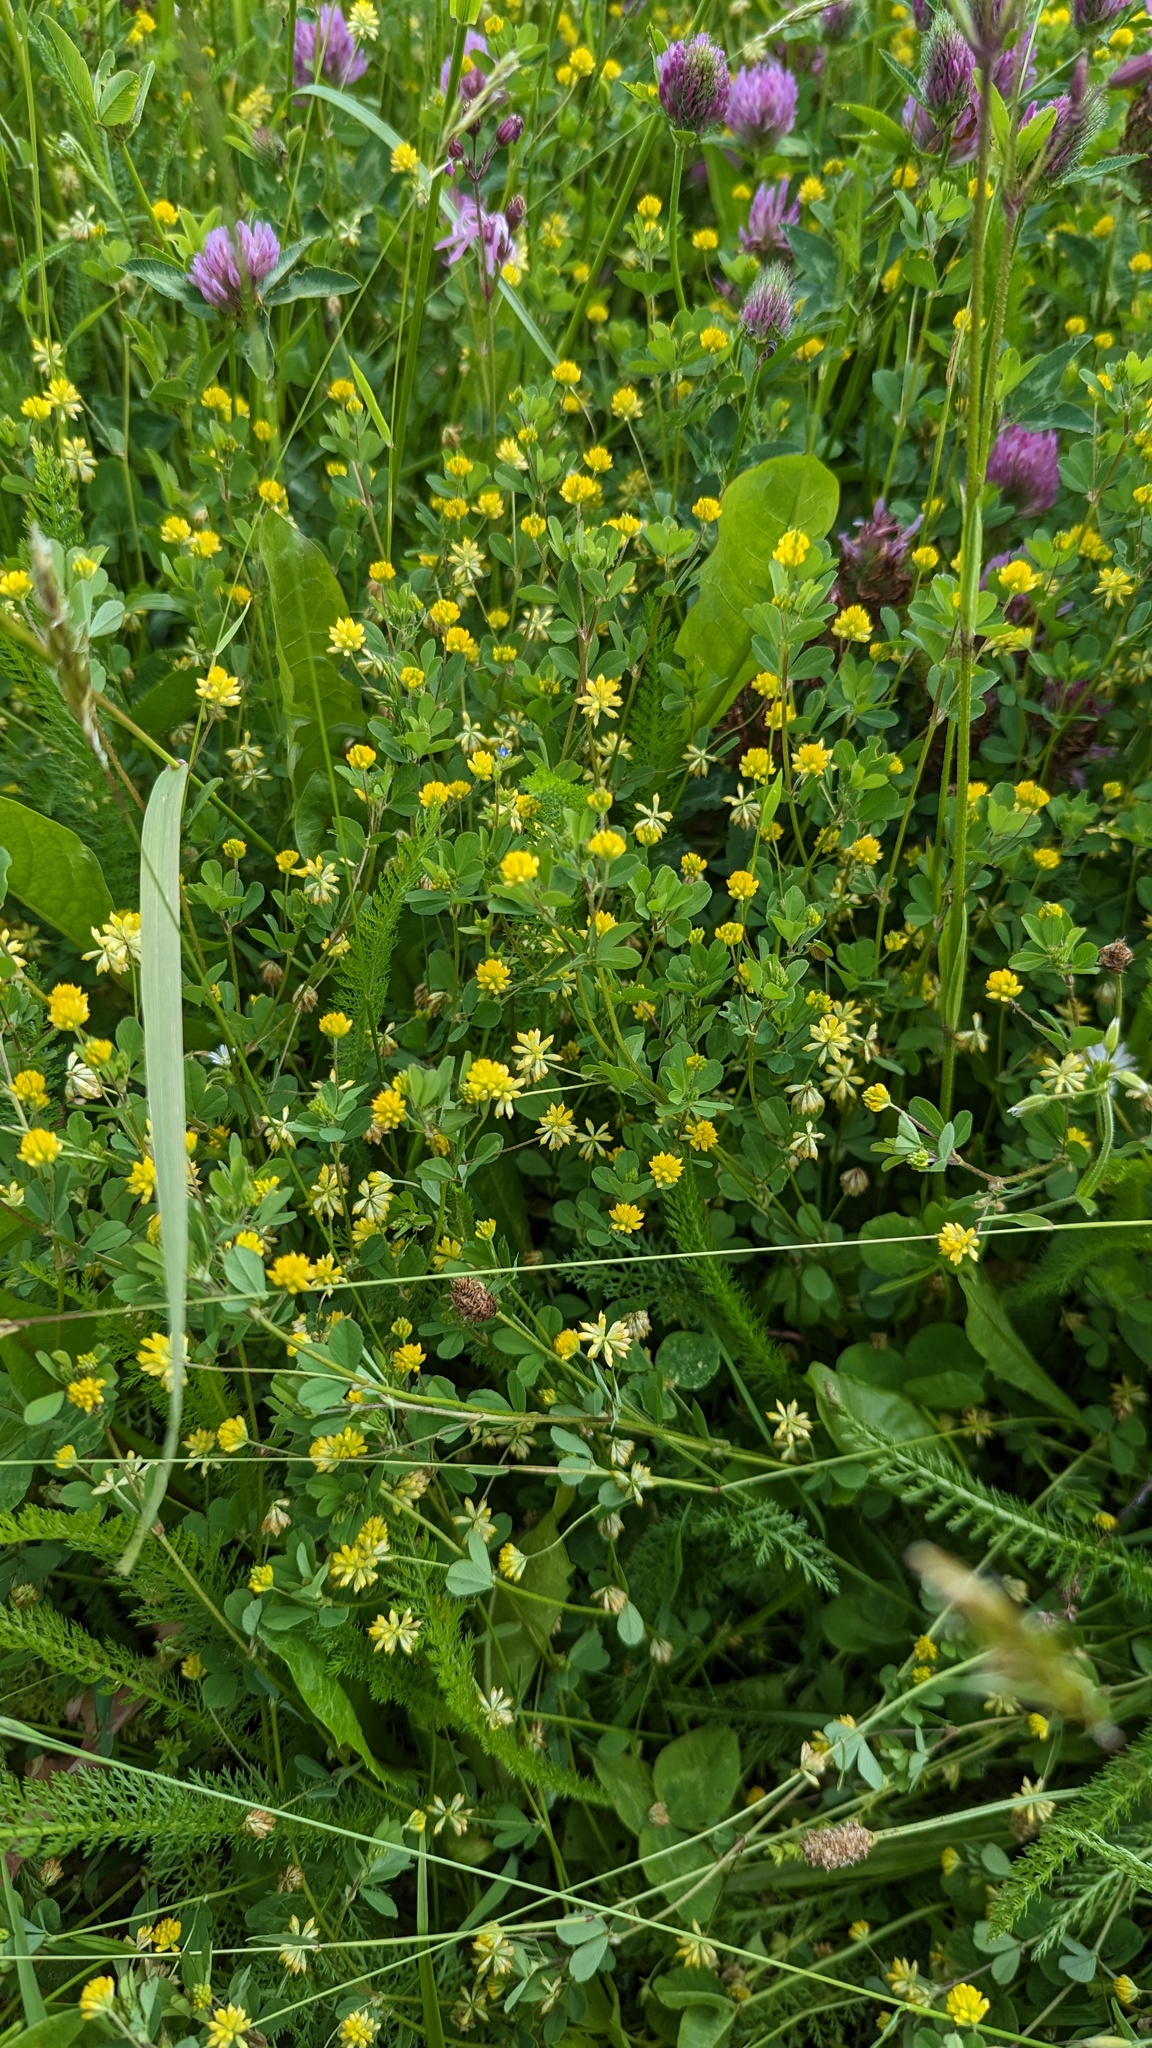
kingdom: Plantae
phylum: Tracheophyta
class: Magnoliopsida
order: Fabales
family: Fabaceae
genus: Trifolium
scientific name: Trifolium dubium
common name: Suckling clover
